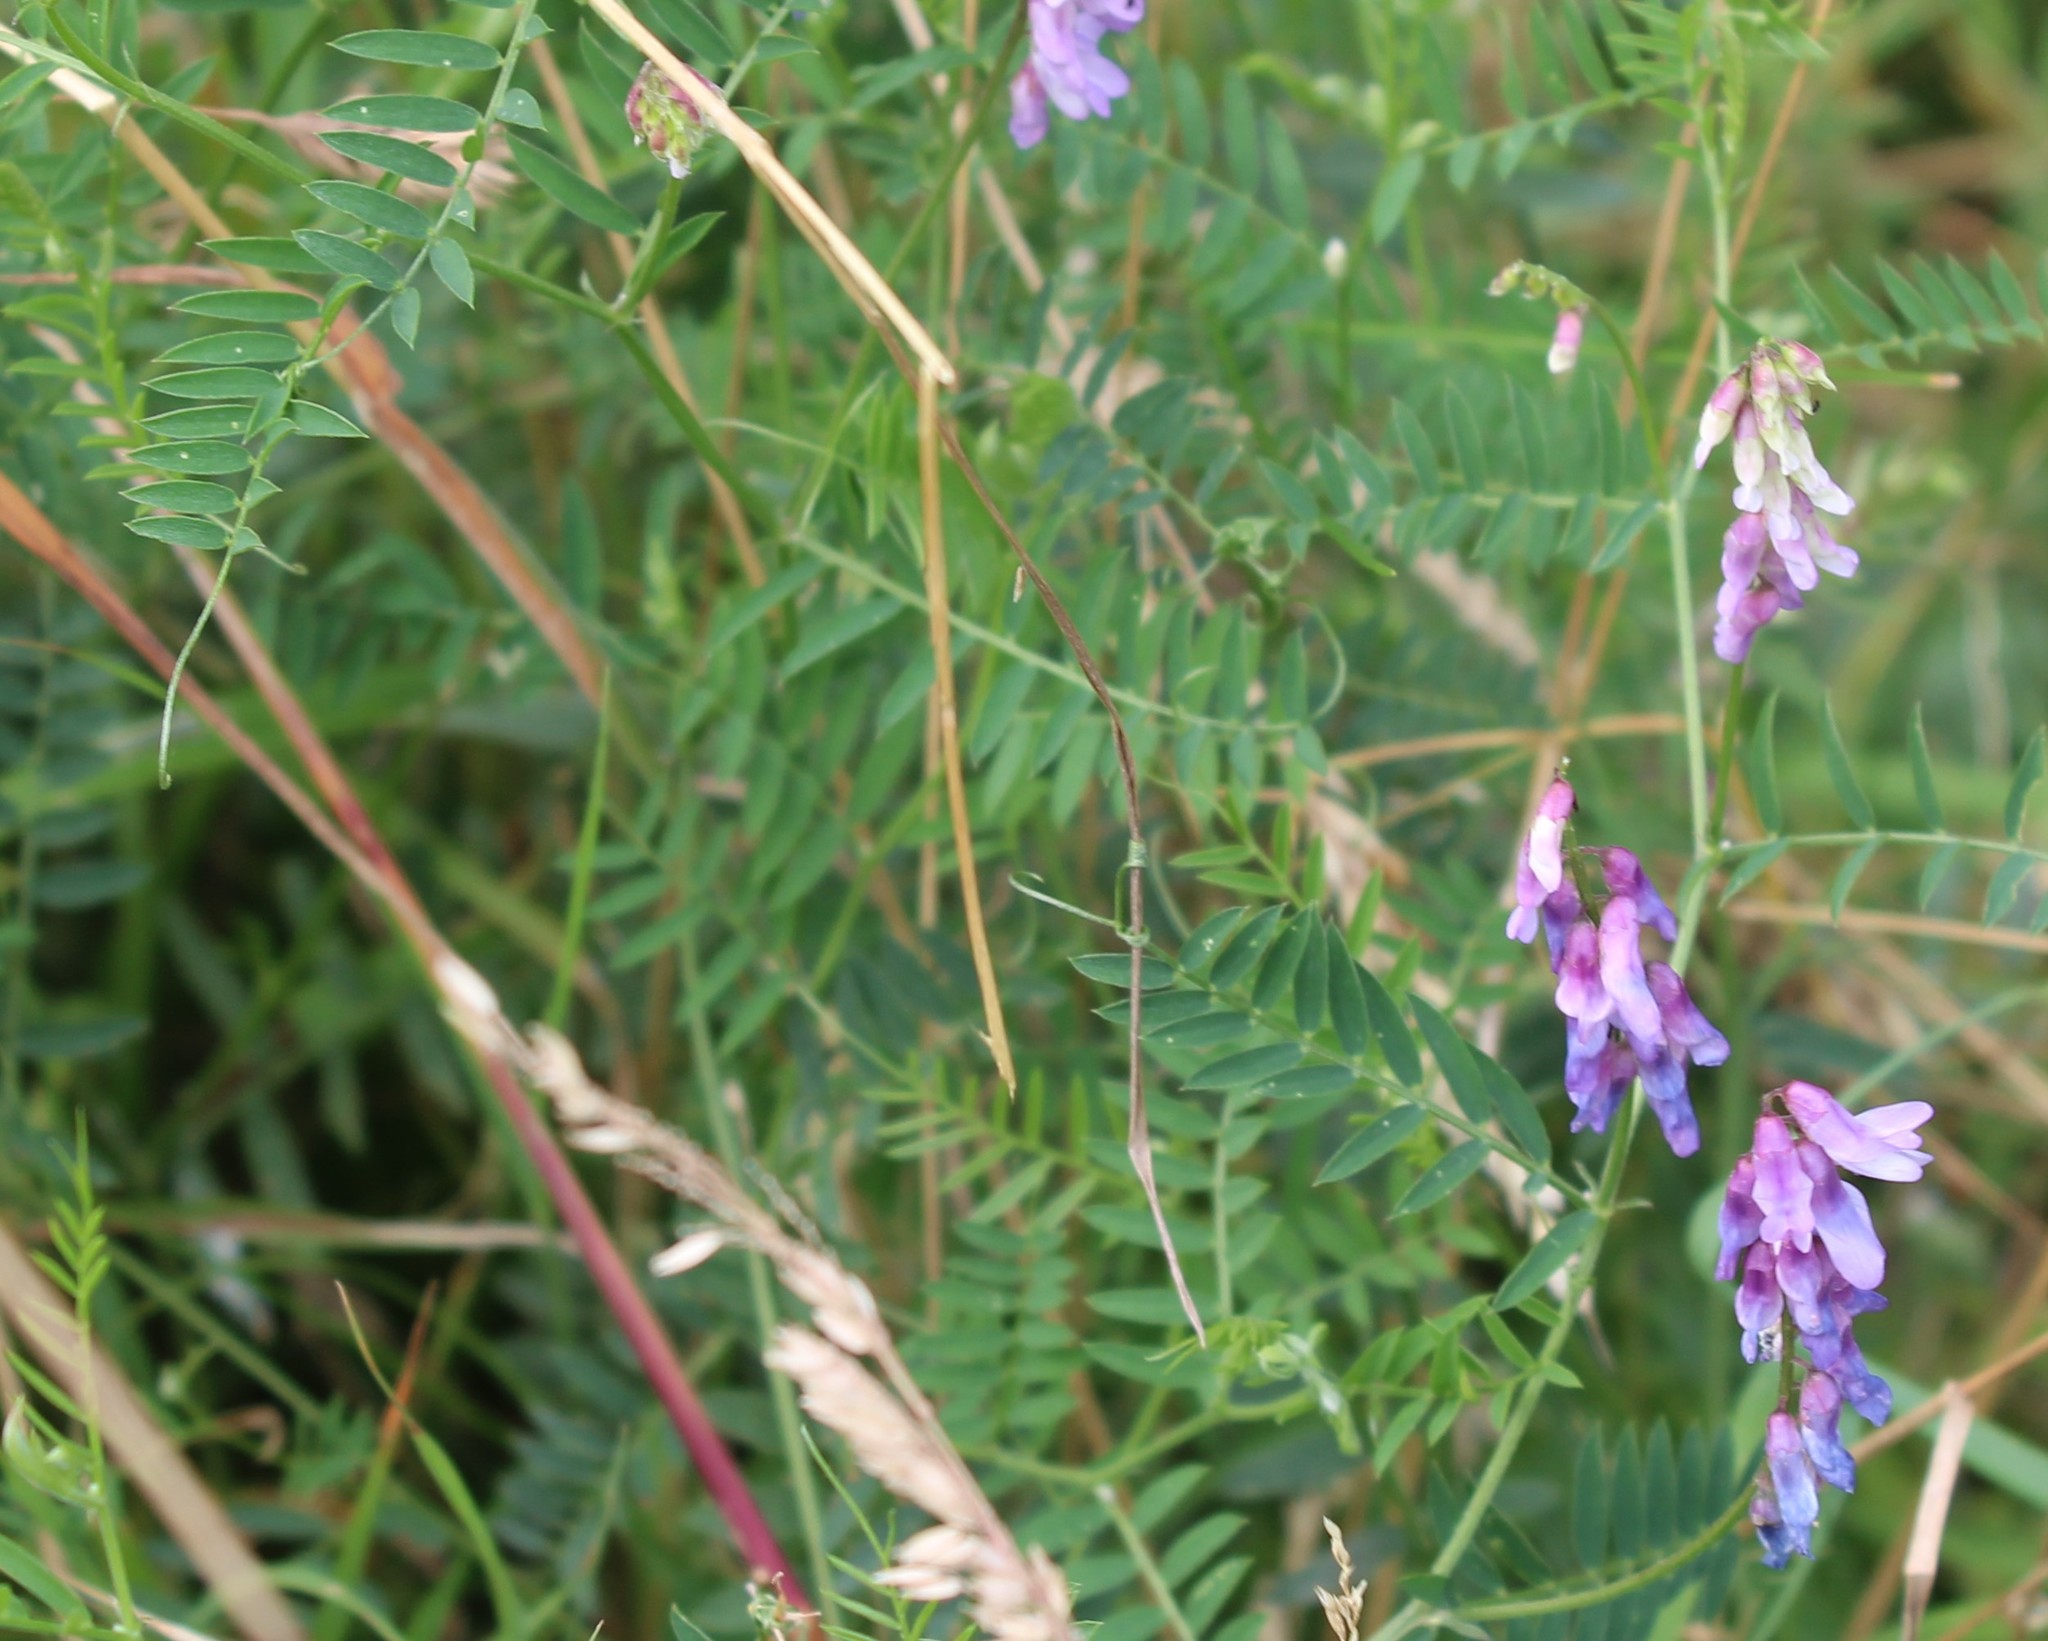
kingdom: Plantae
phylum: Tracheophyta
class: Magnoliopsida
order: Fabales
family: Fabaceae
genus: Vicia
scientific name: Vicia cracca
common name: Bird vetch
